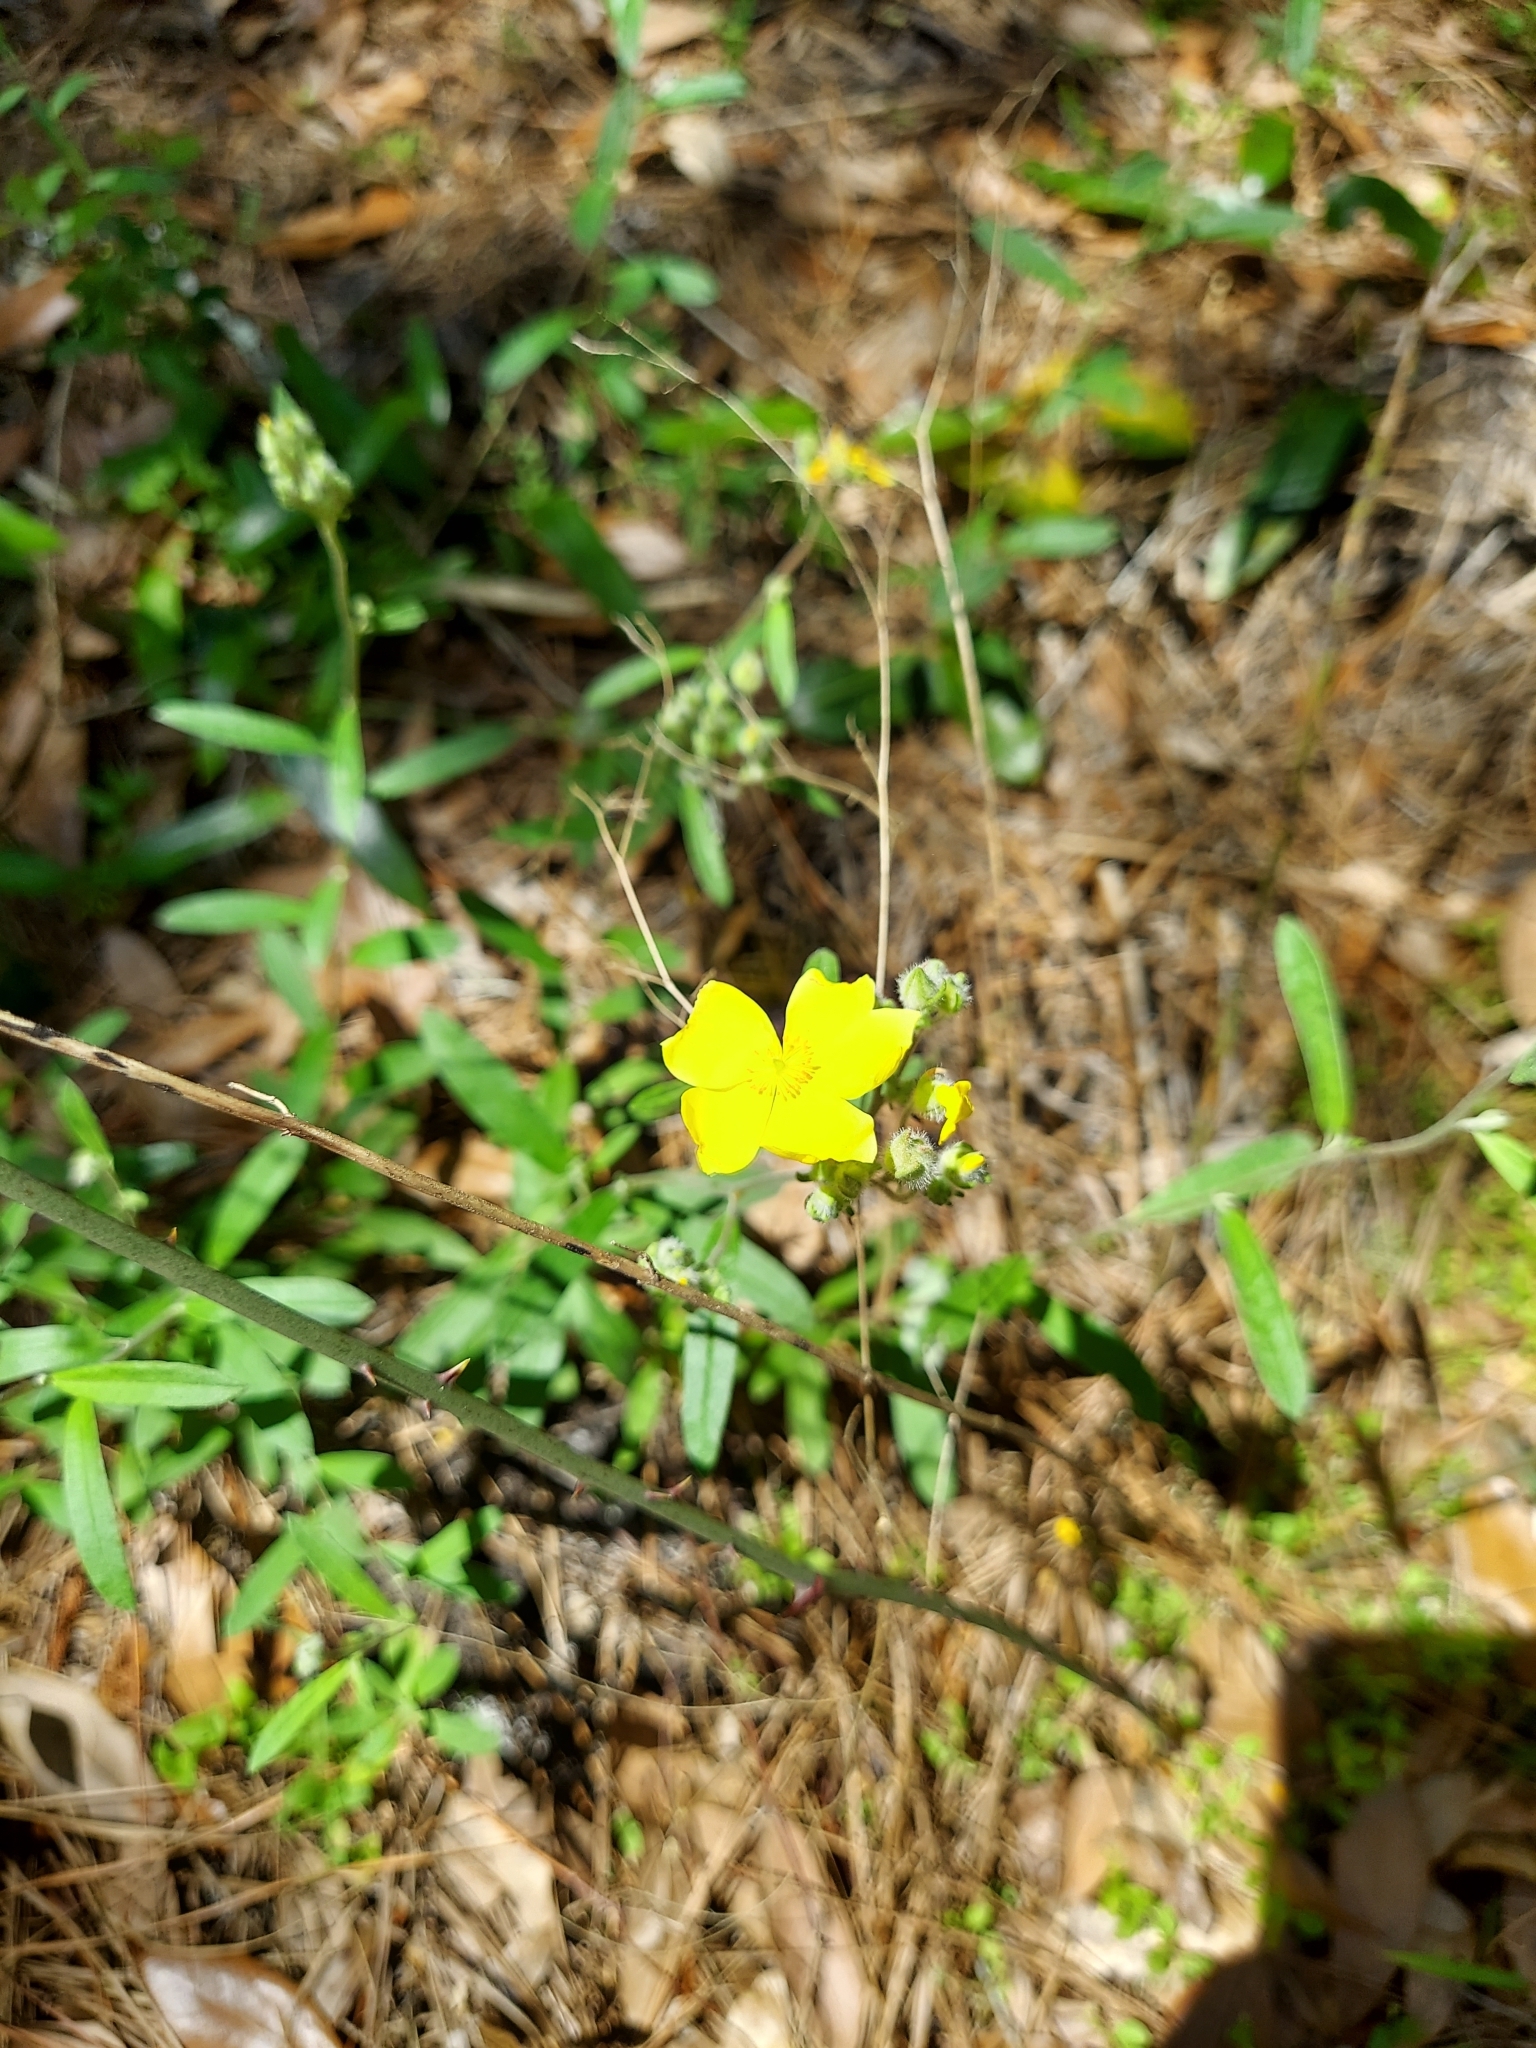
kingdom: Plantae
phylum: Tracheophyta
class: Magnoliopsida
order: Malvales
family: Cistaceae
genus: Crocanthemum
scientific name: Crocanthemum corymbosum
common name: Pinebarren sun-rose
